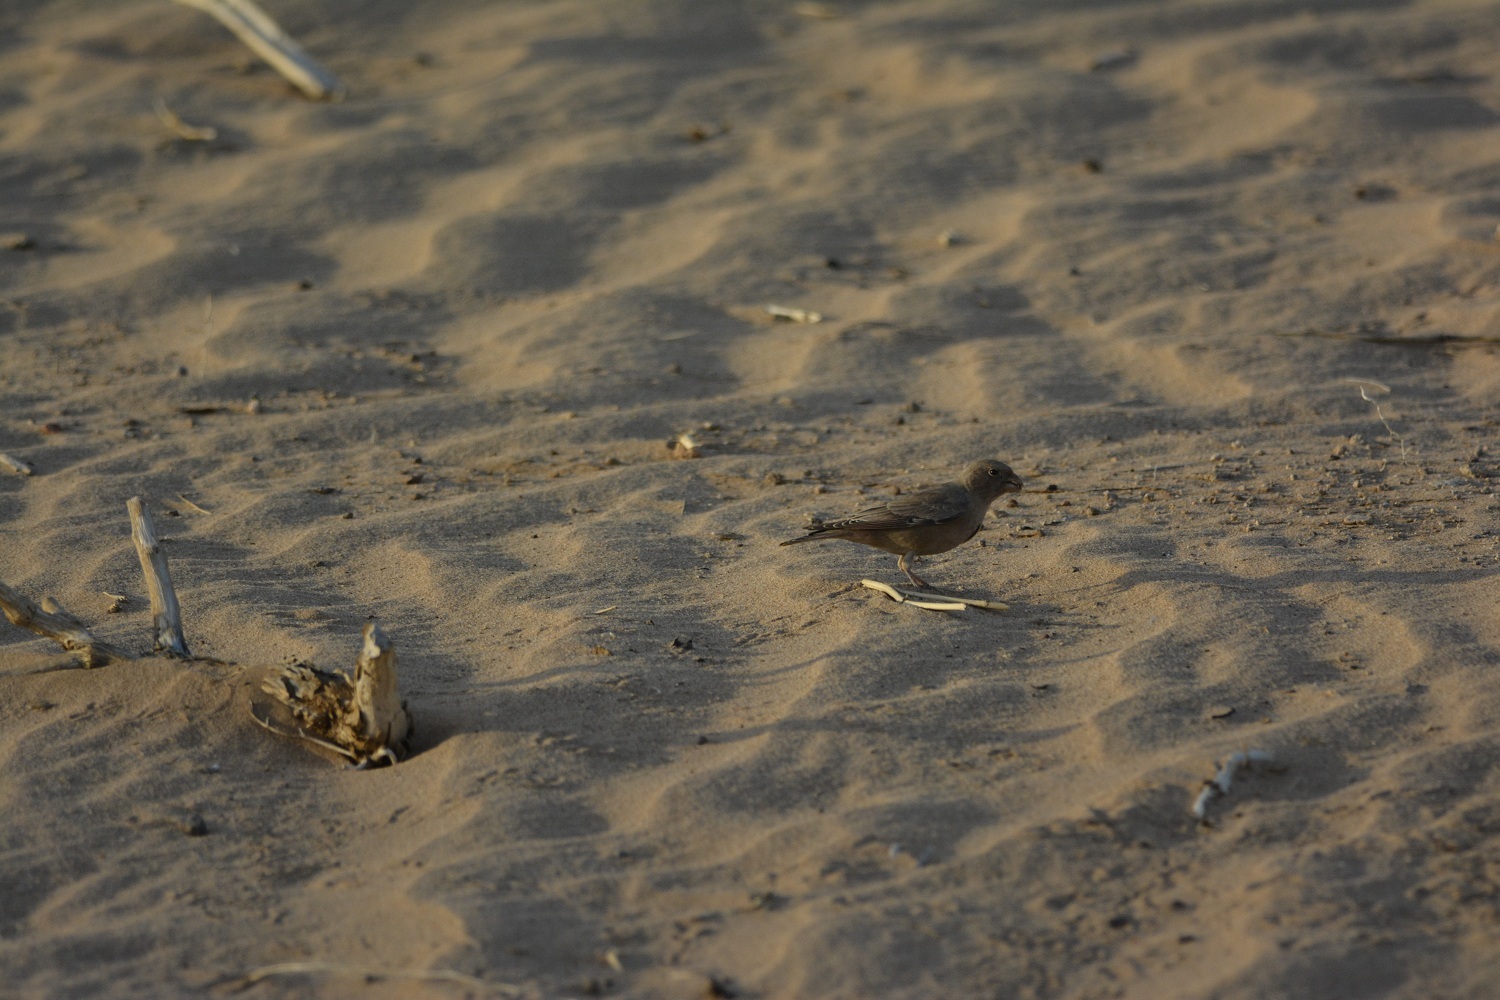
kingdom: Animalia
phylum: Chordata
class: Aves
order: Passeriformes
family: Fringillidae
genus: Bucanetes
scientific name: Bucanetes githagineus
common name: Trumpeter finch
